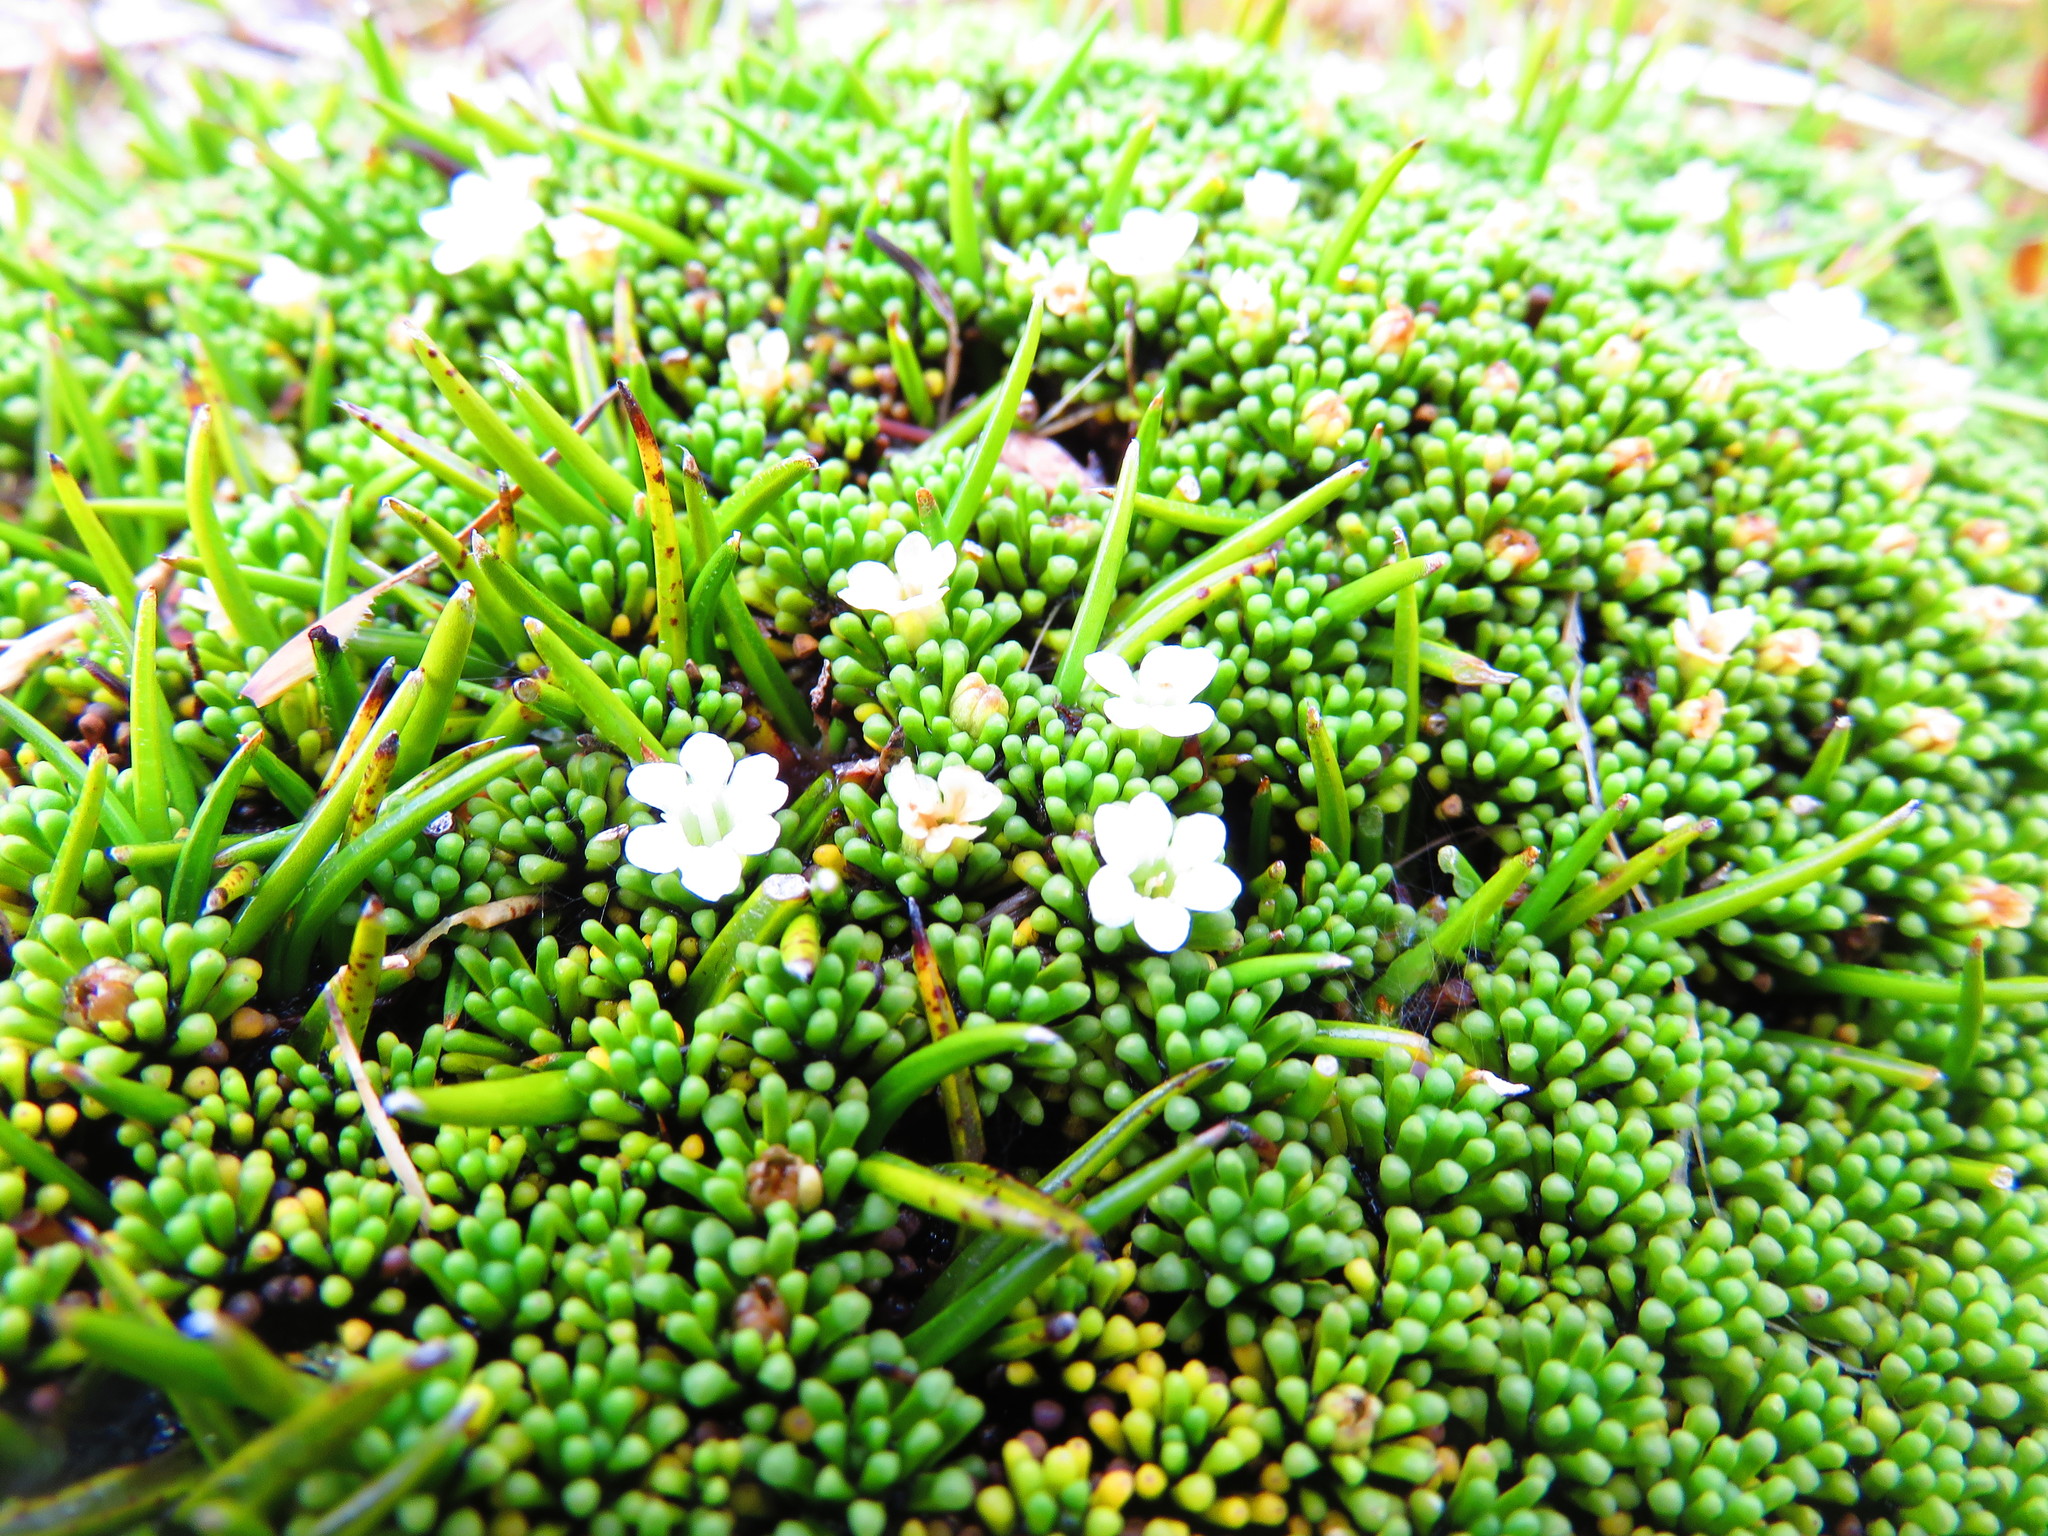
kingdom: Plantae
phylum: Tracheophyta
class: Magnoliopsida
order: Asterales
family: Stylidiaceae
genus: Phyllachne
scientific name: Phyllachne clavigera
